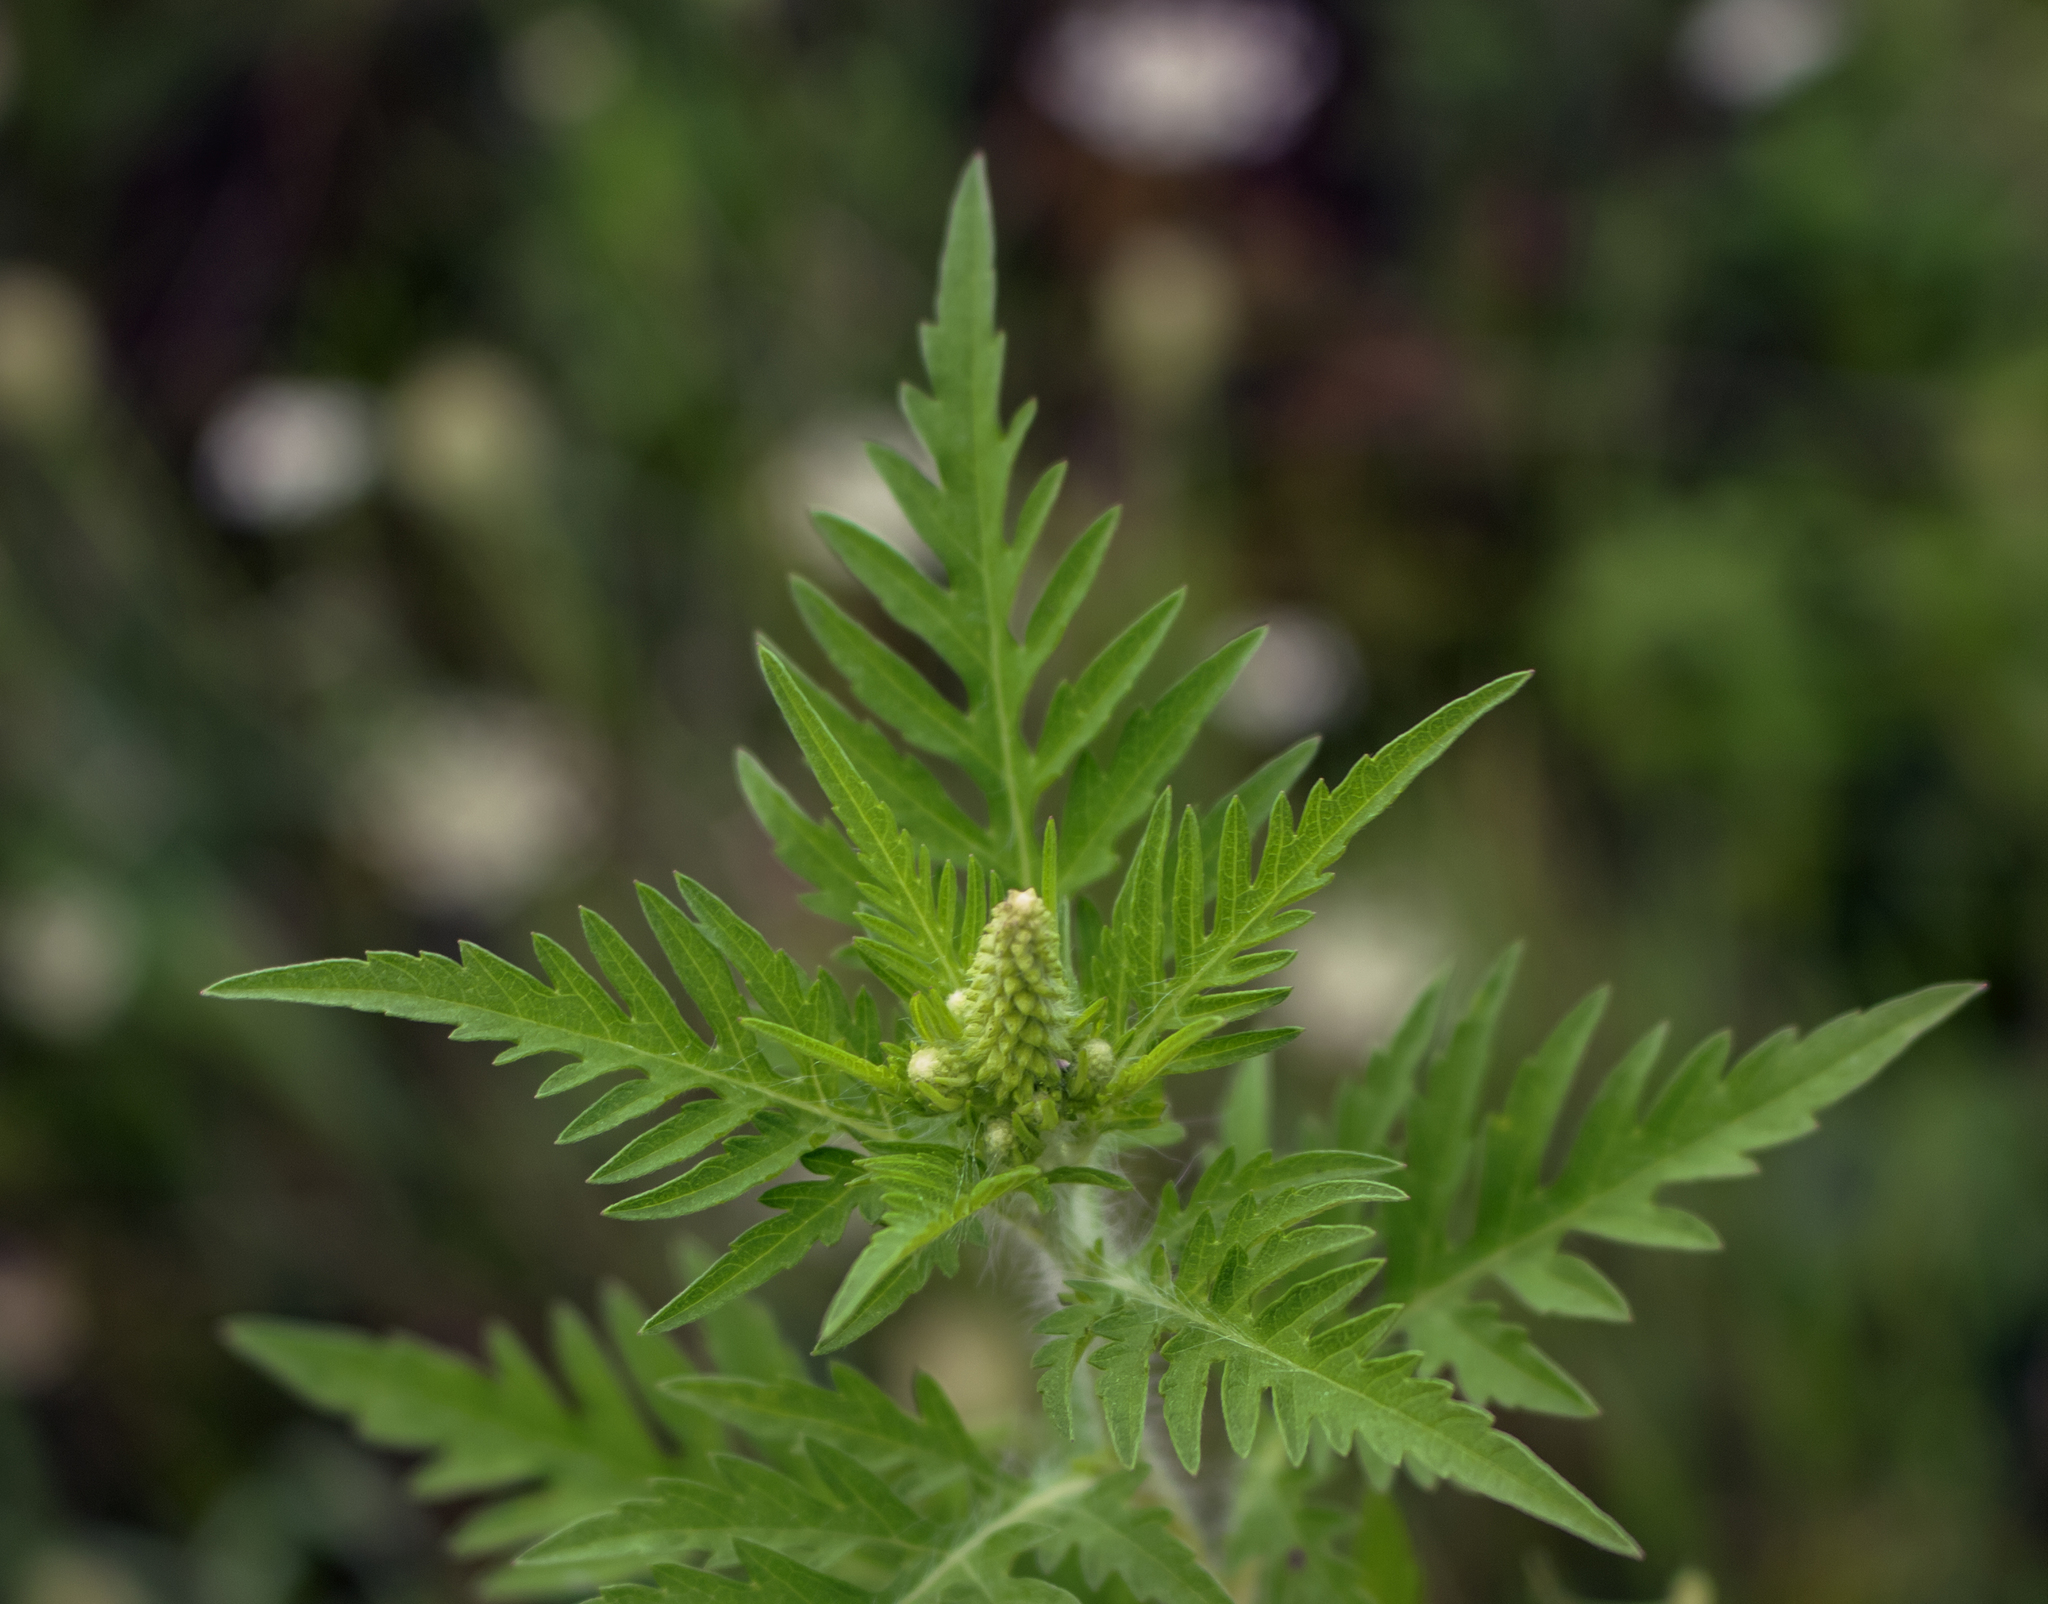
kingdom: Plantae
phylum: Tracheophyta
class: Magnoliopsida
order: Asterales
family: Asteraceae
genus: Ambrosia
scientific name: Ambrosia artemisiifolia
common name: Annual ragweed
